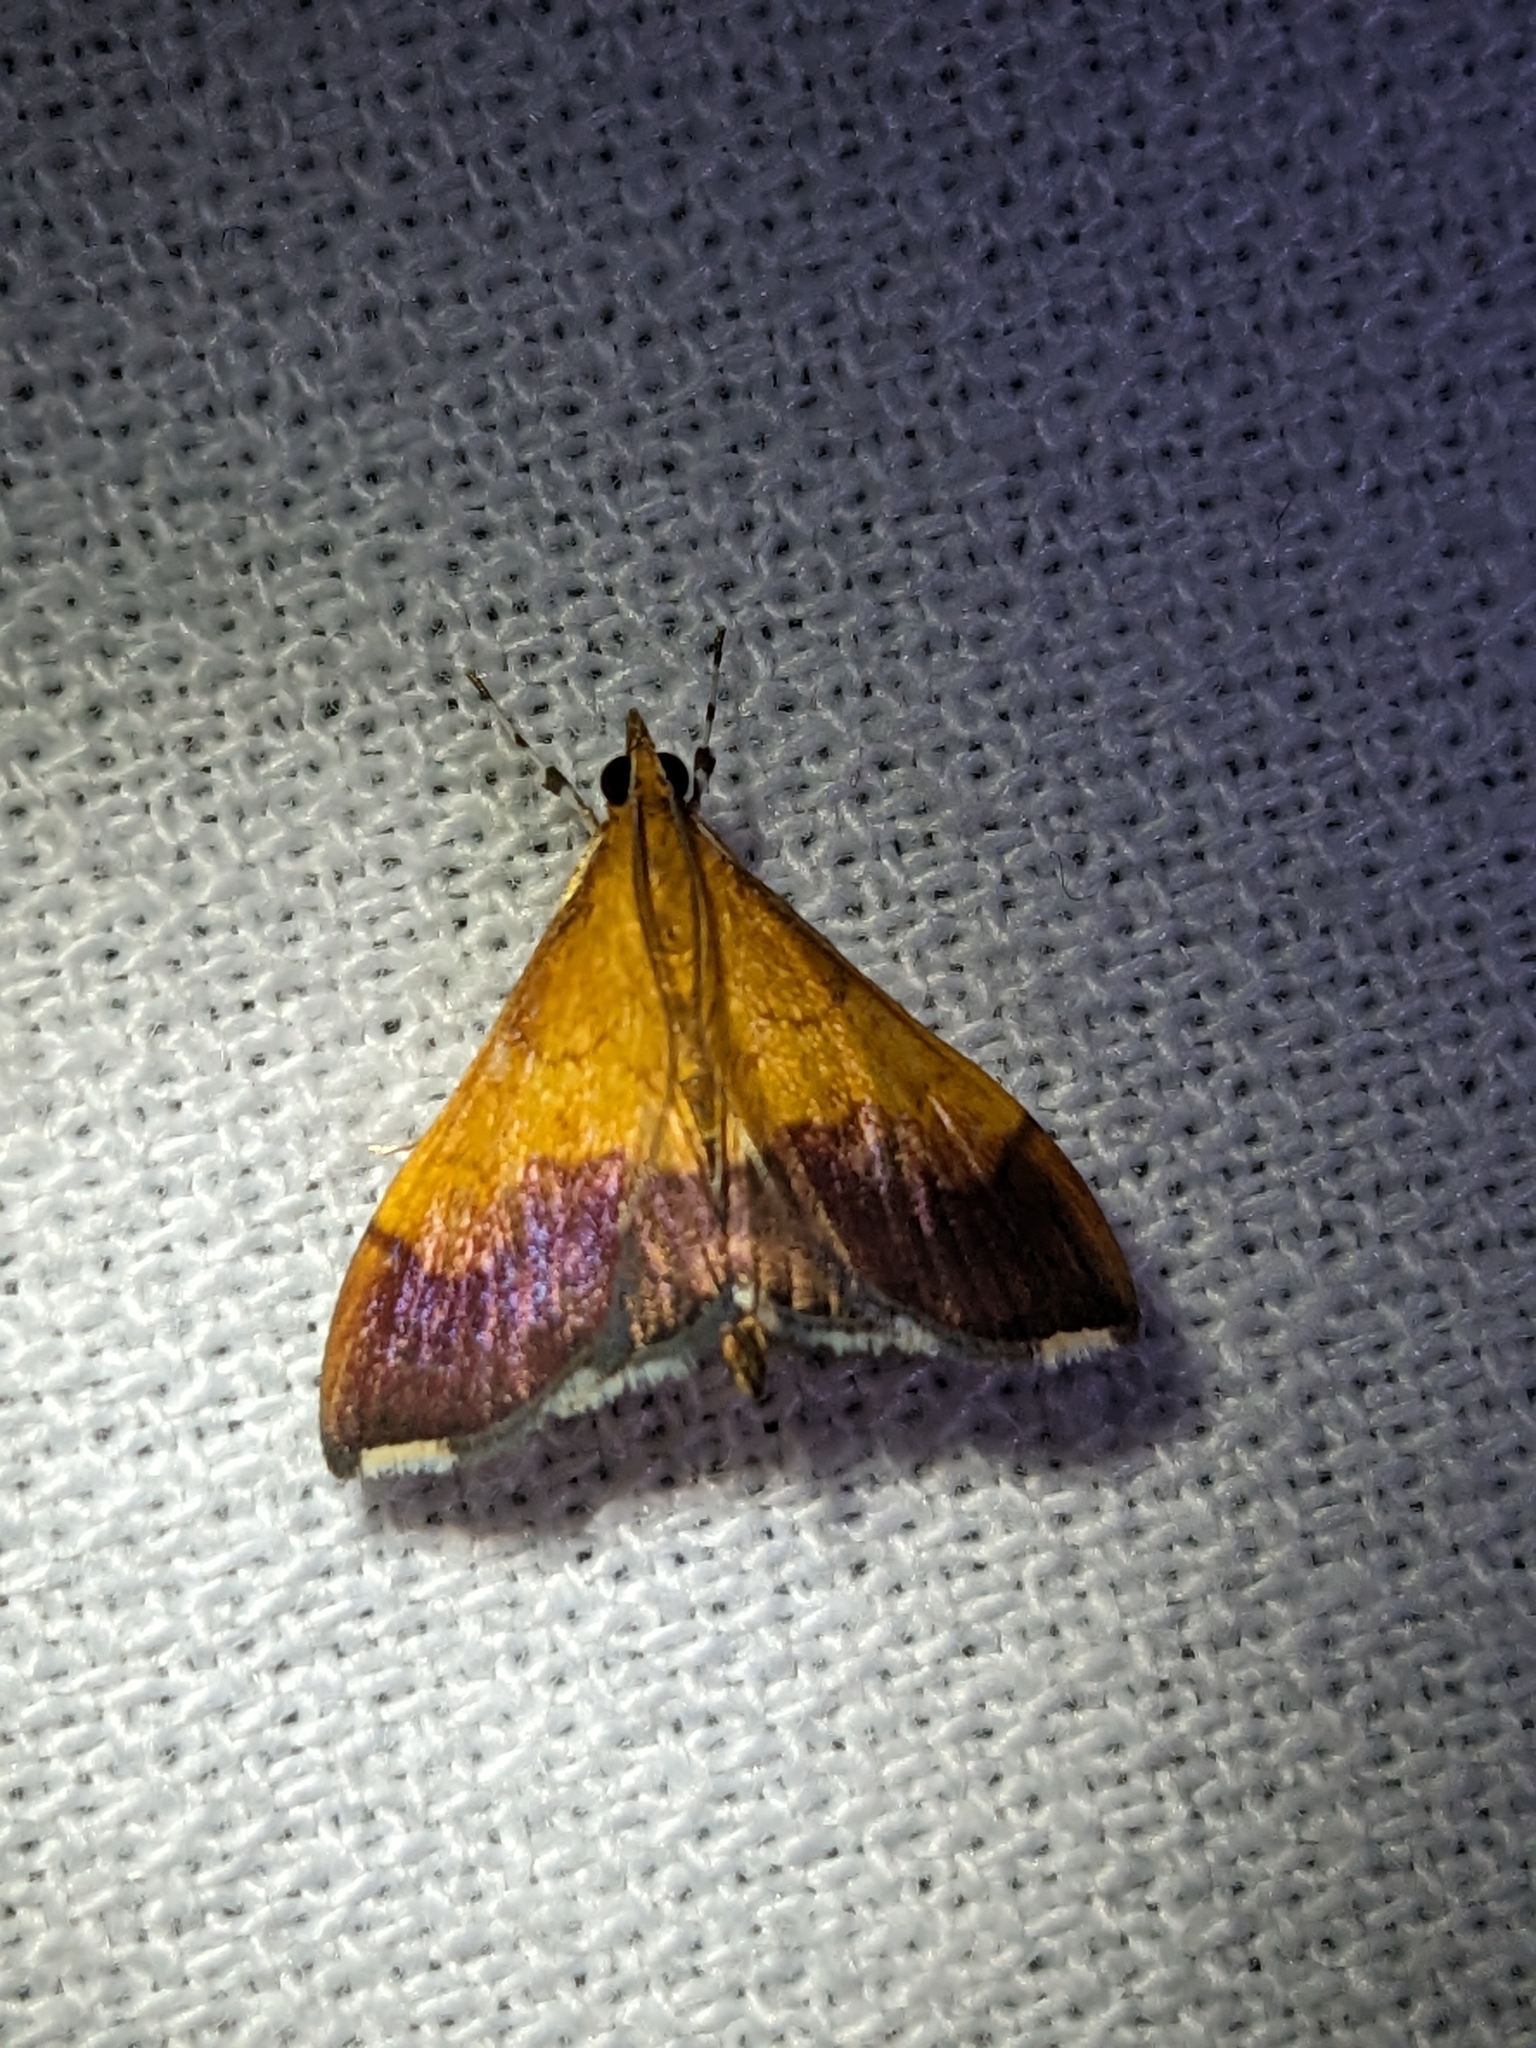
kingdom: Animalia
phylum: Arthropoda
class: Insecta
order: Lepidoptera
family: Crambidae
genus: Pyrausta
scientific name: Pyrausta bicoloralis
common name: Bicolored pyrausta moth
